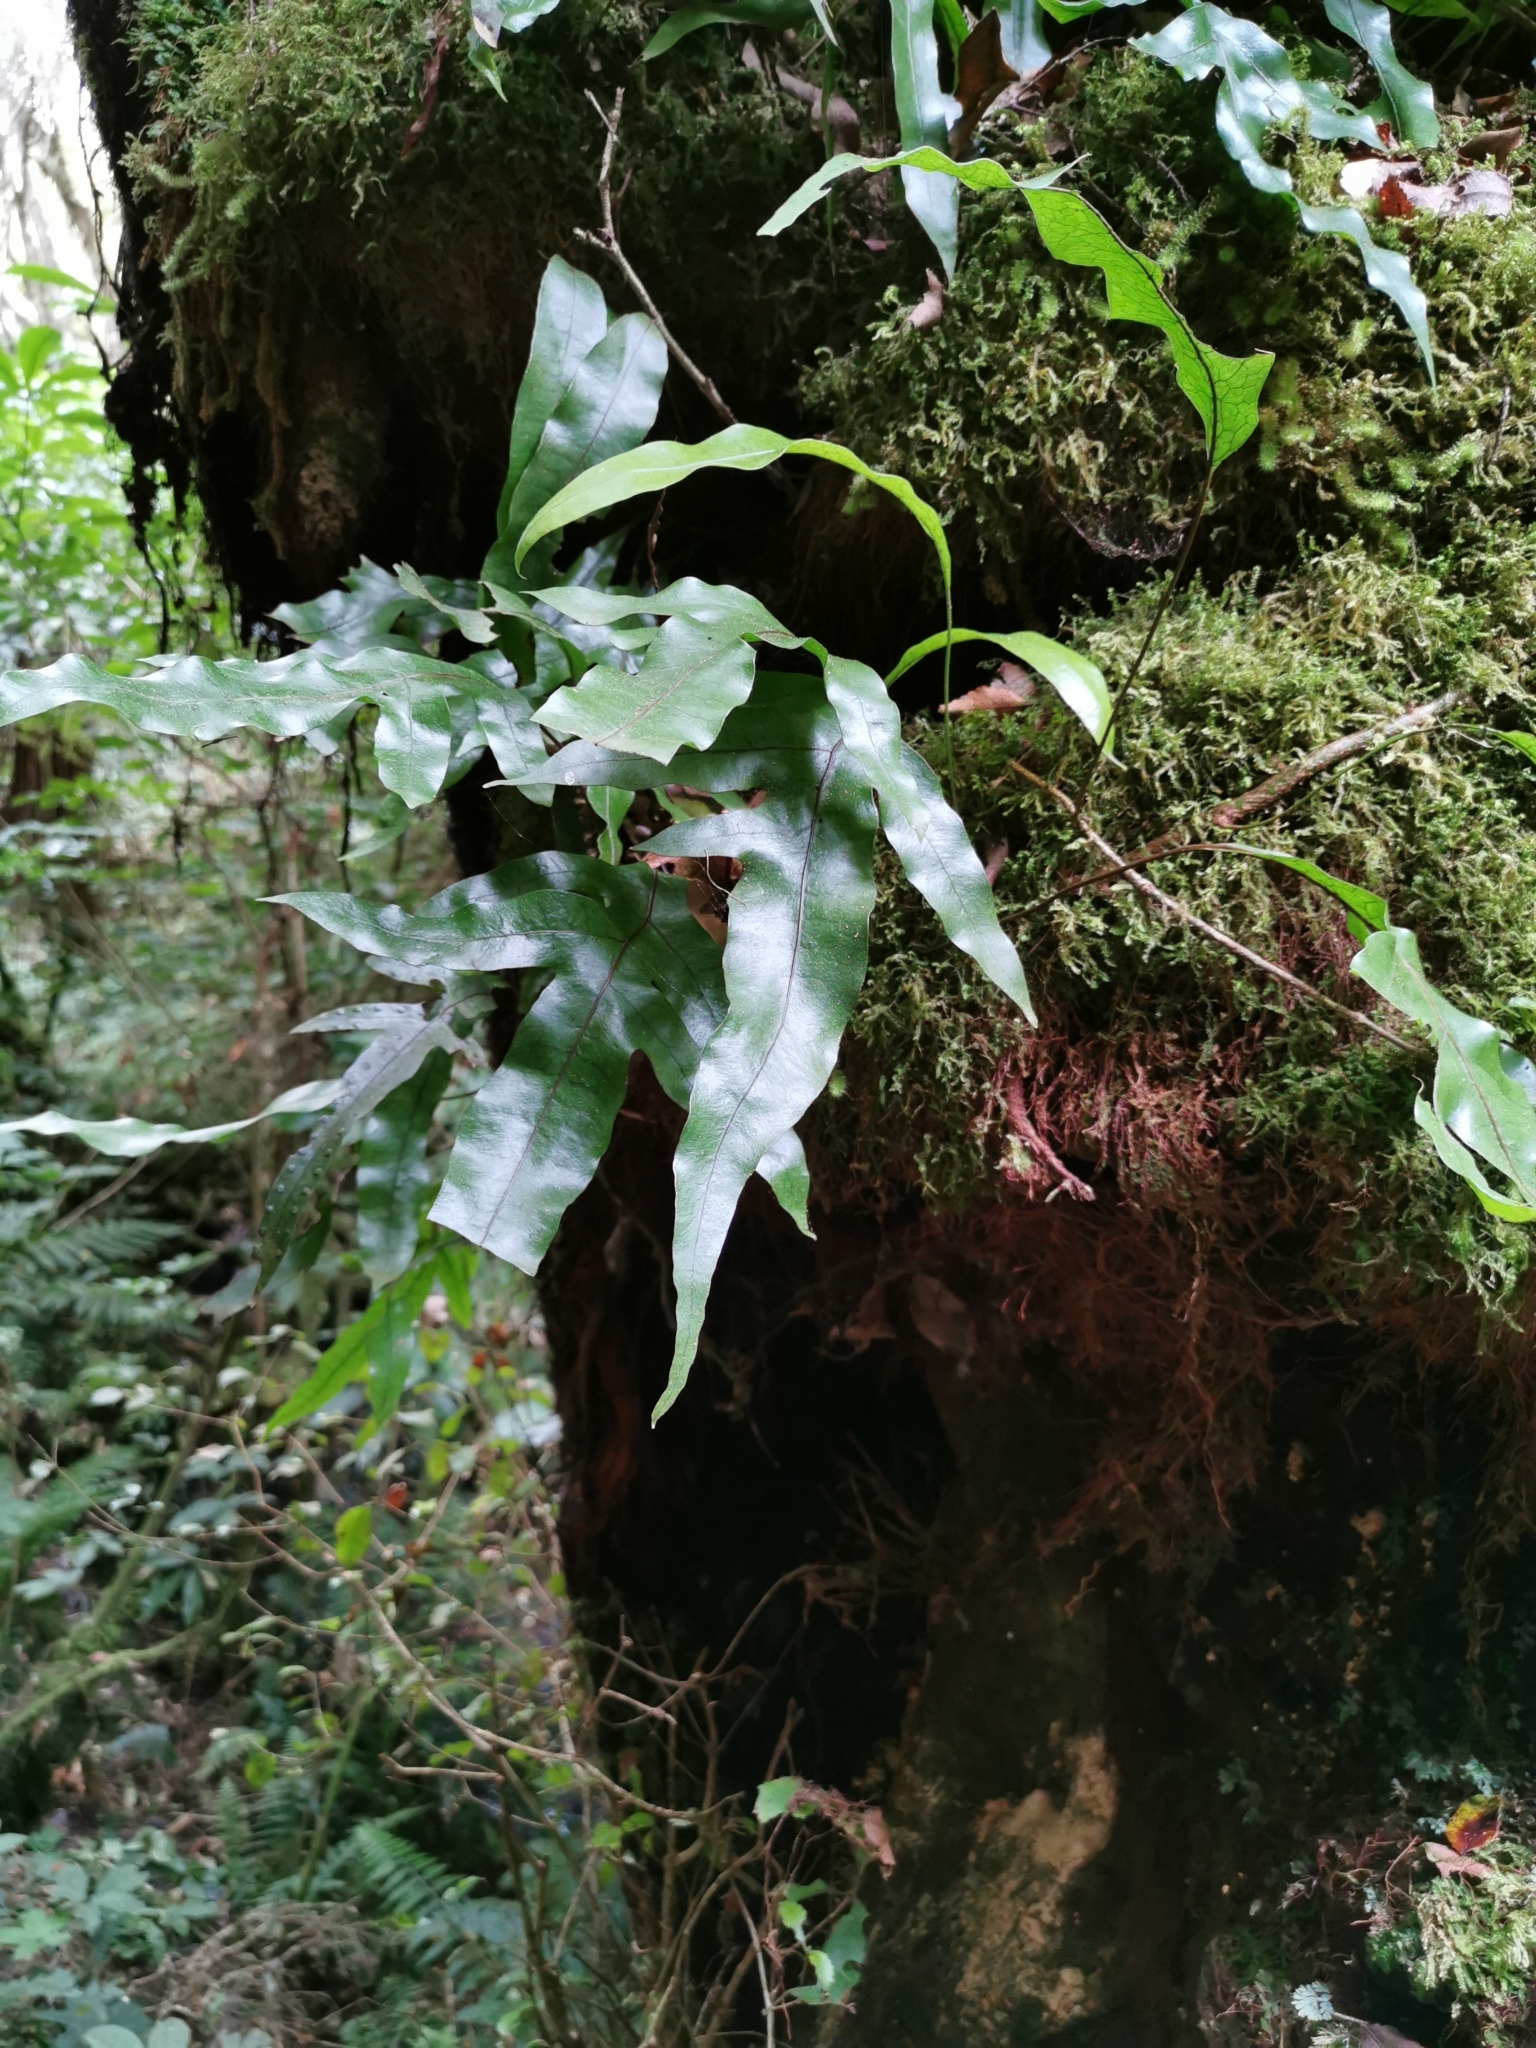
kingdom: Plantae
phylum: Tracheophyta
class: Polypodiopsida
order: Polypodiales
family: Polypodiaceae
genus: Lecanopteris
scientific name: Lecanopteris pustulata
